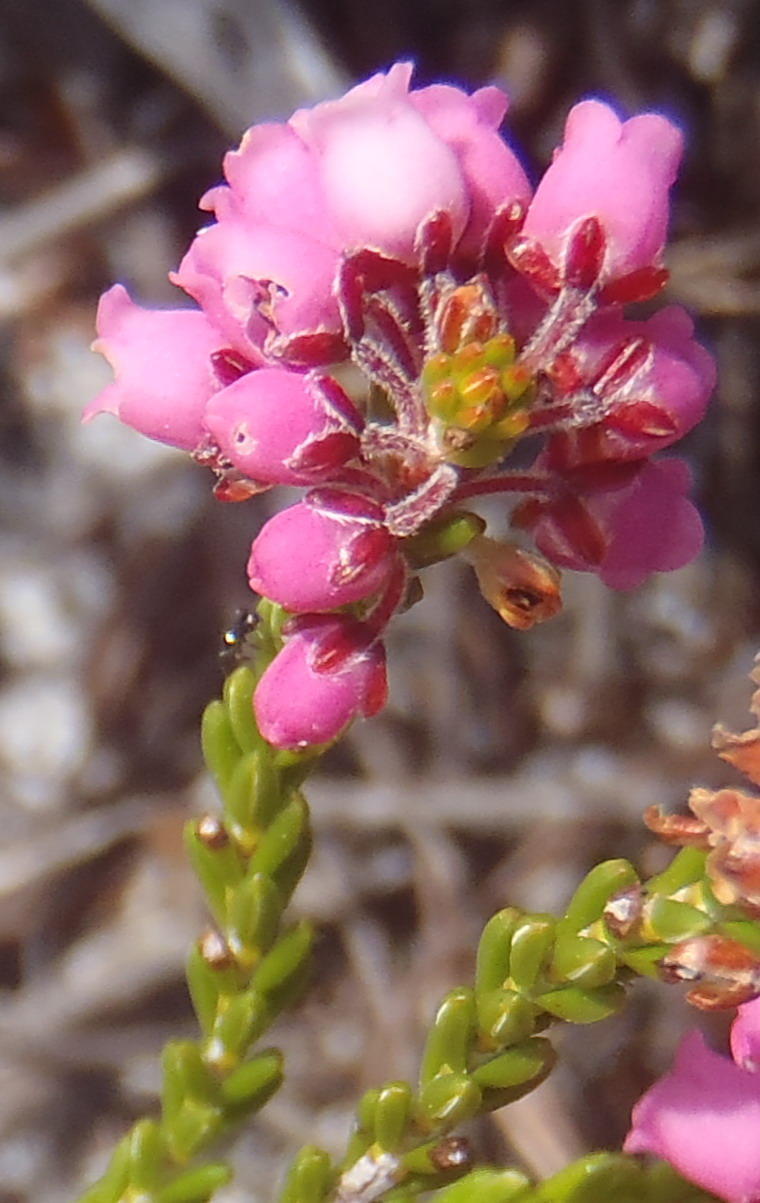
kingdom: Plantae
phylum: Tracheophyta
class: Magnoliopsida
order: Ericales
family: Ericaceae
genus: Erica
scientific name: Erica pulchella
